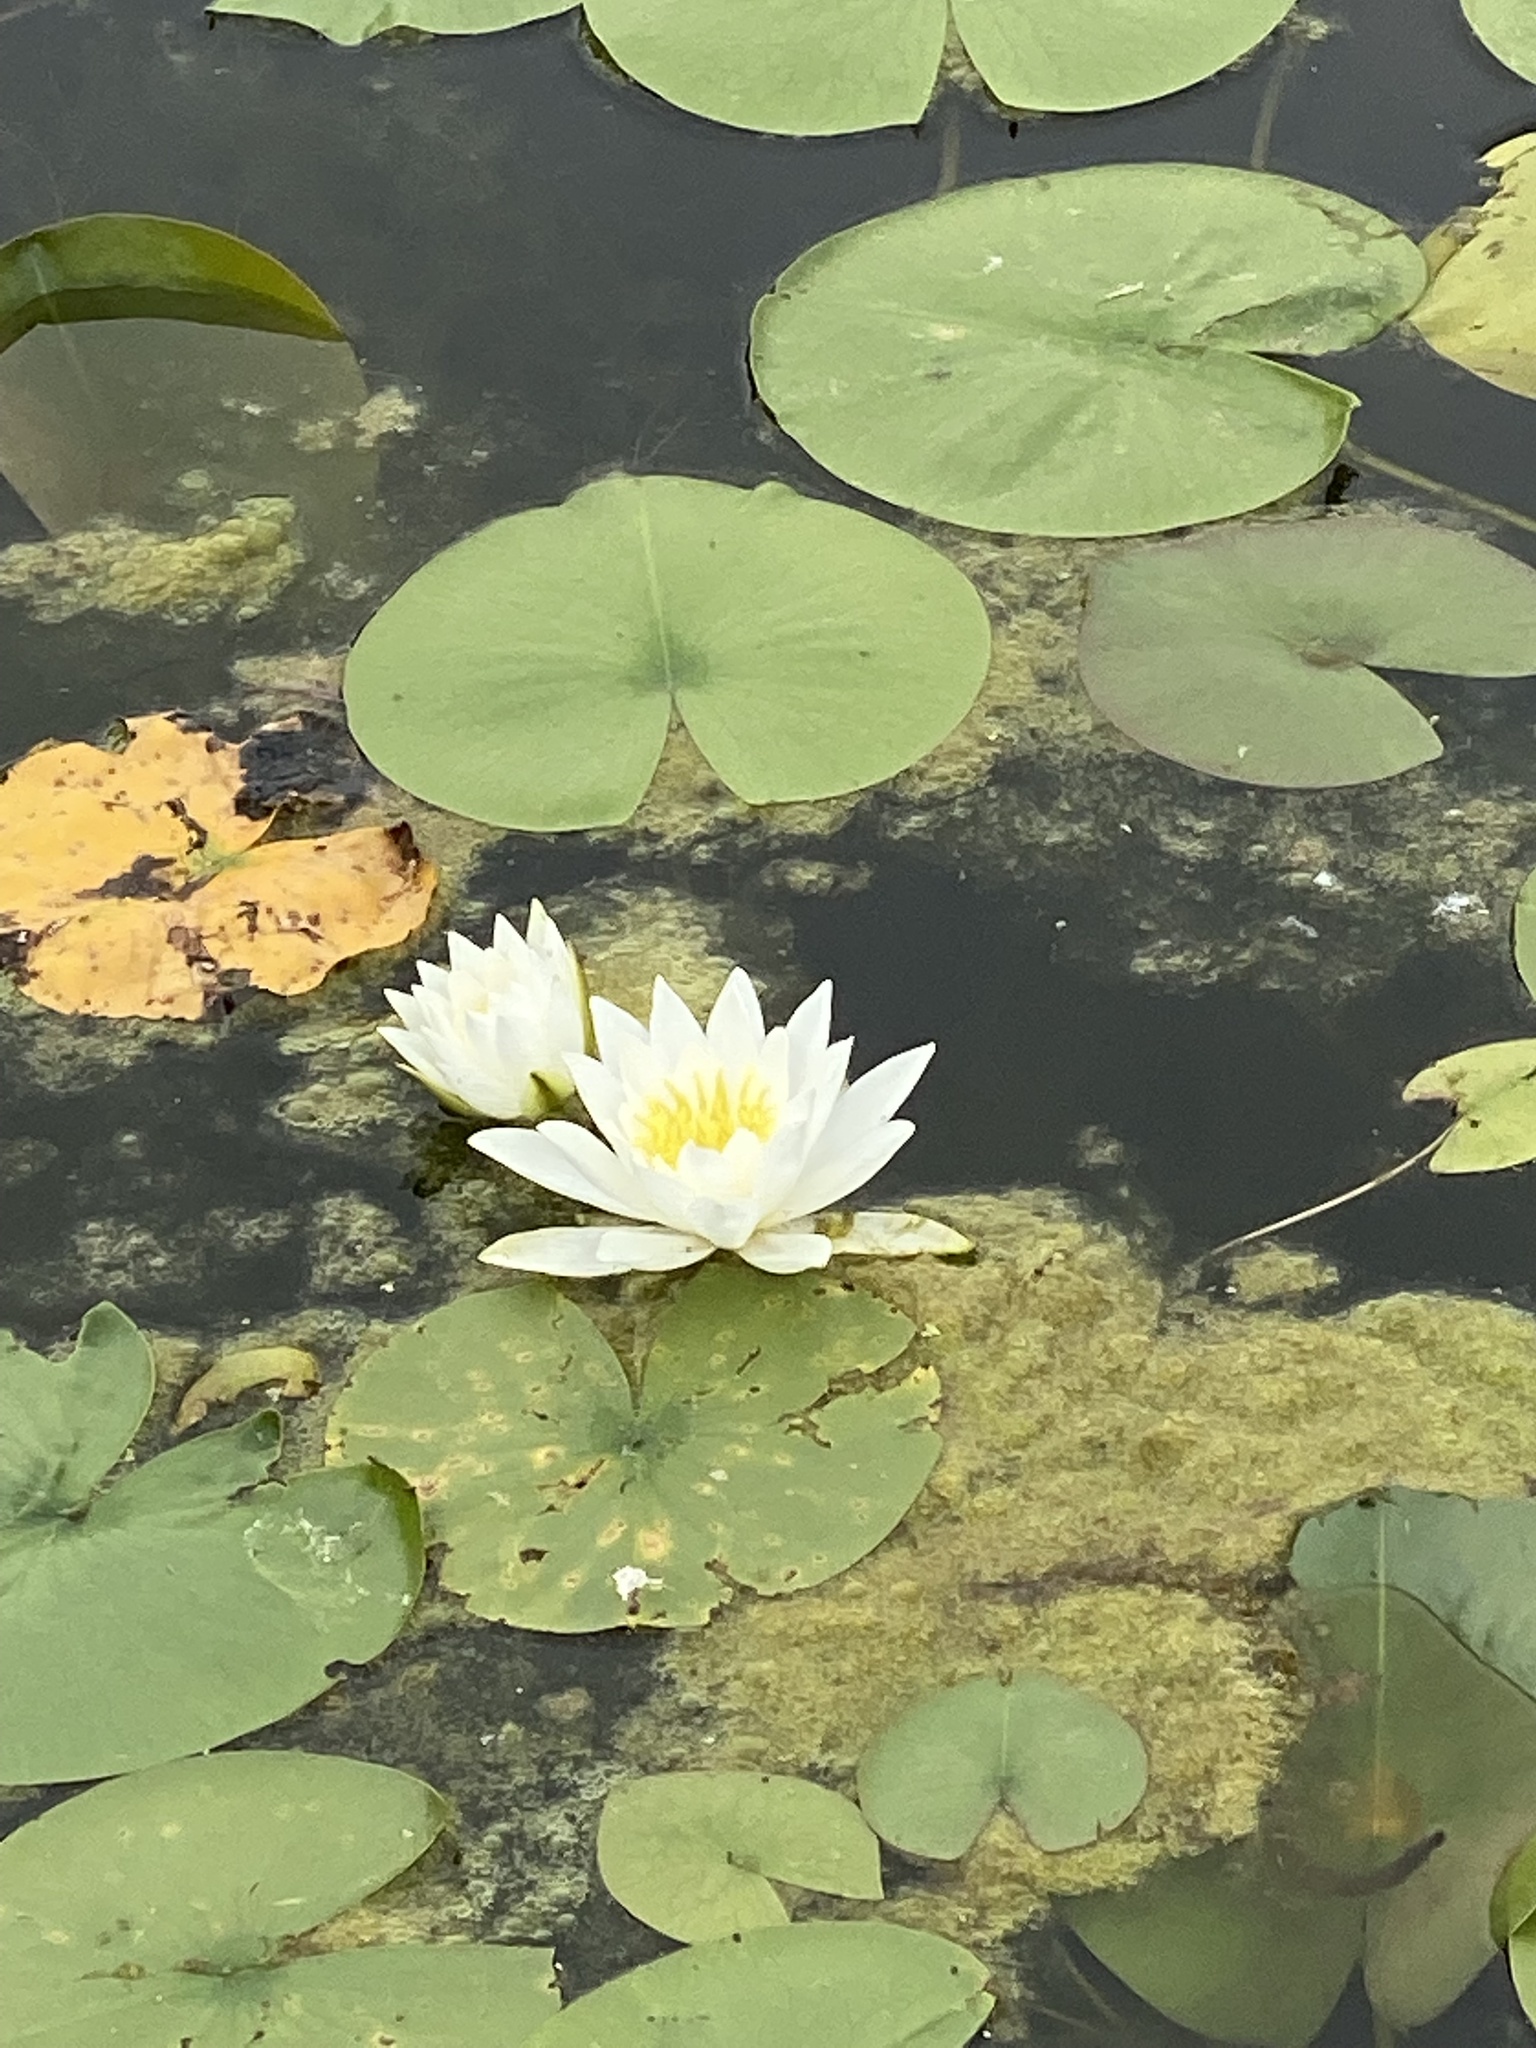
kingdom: Plantae
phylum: Tracheophyta
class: Magnoliopsida
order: Nymphaeales
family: Nymphaeaceae
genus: Nymphaea
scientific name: Nymphaea odorata
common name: Fragrant water-lily
